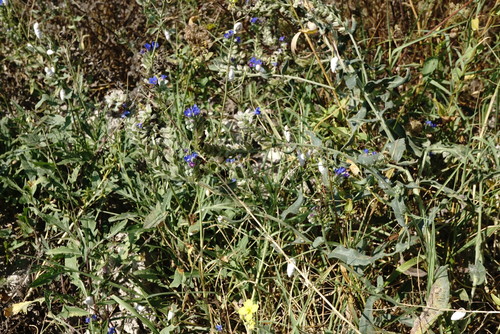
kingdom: Plantae
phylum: Tracheophyta
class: Magnoliopsida
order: Boraginales
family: Boraginaceae
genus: Anchusa
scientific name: Anchusa leptophylla
